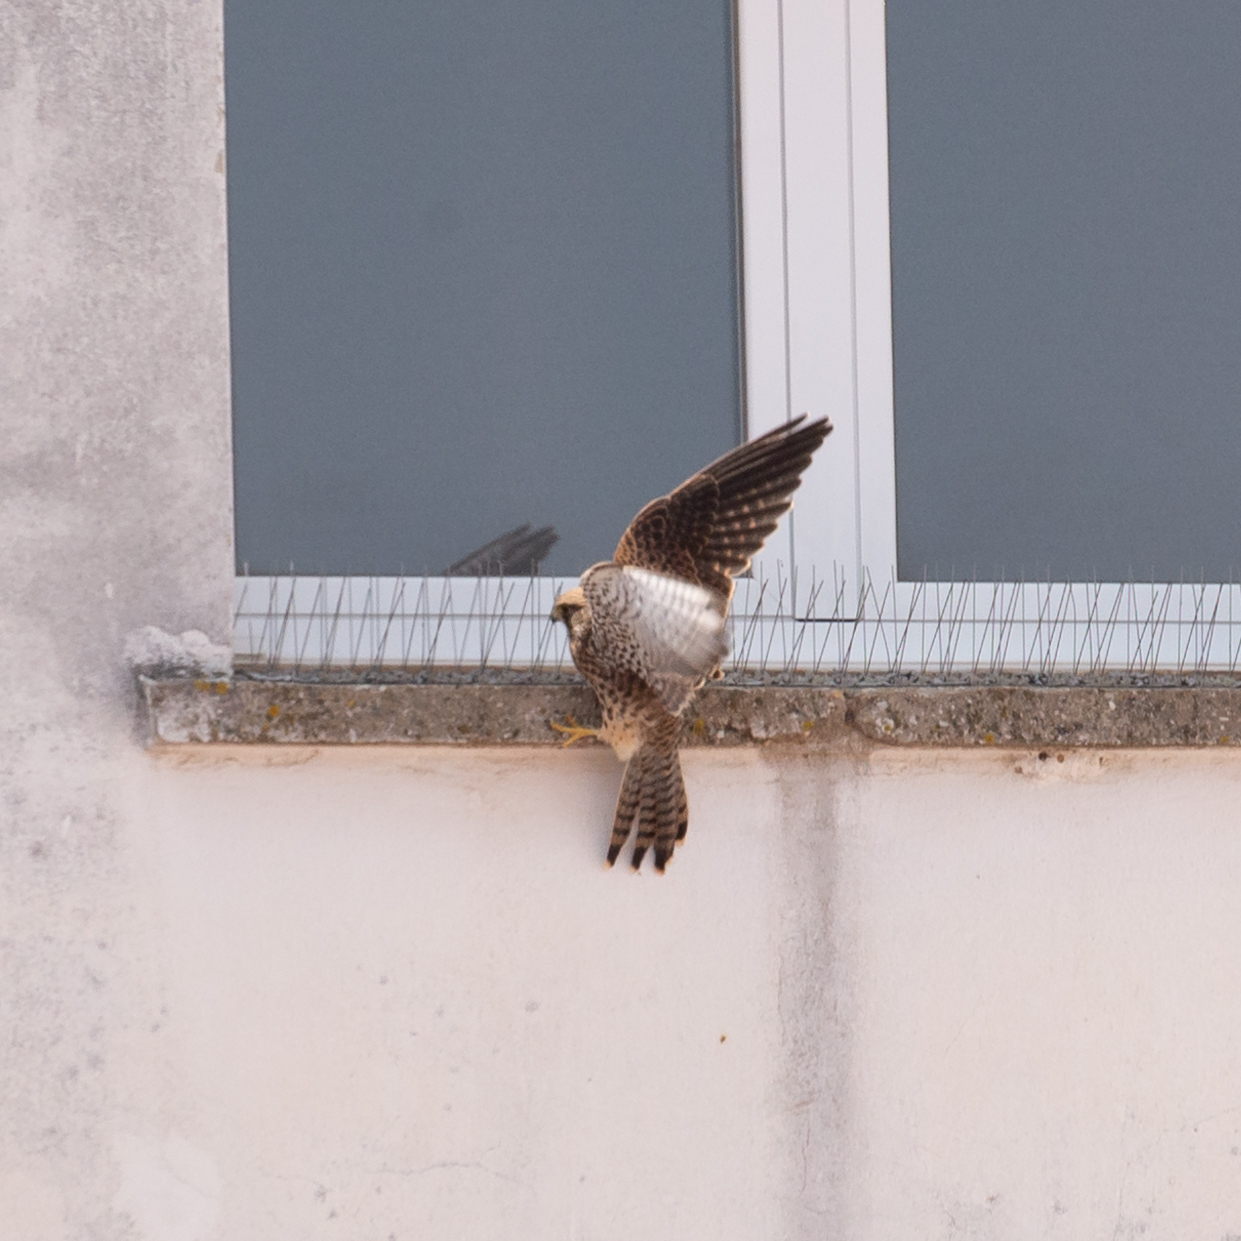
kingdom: Animalia
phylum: Chordata
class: Aves
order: Falconiformes
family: Falconidae
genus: Falco
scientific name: Falco tinnunculus
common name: Common kestrel
